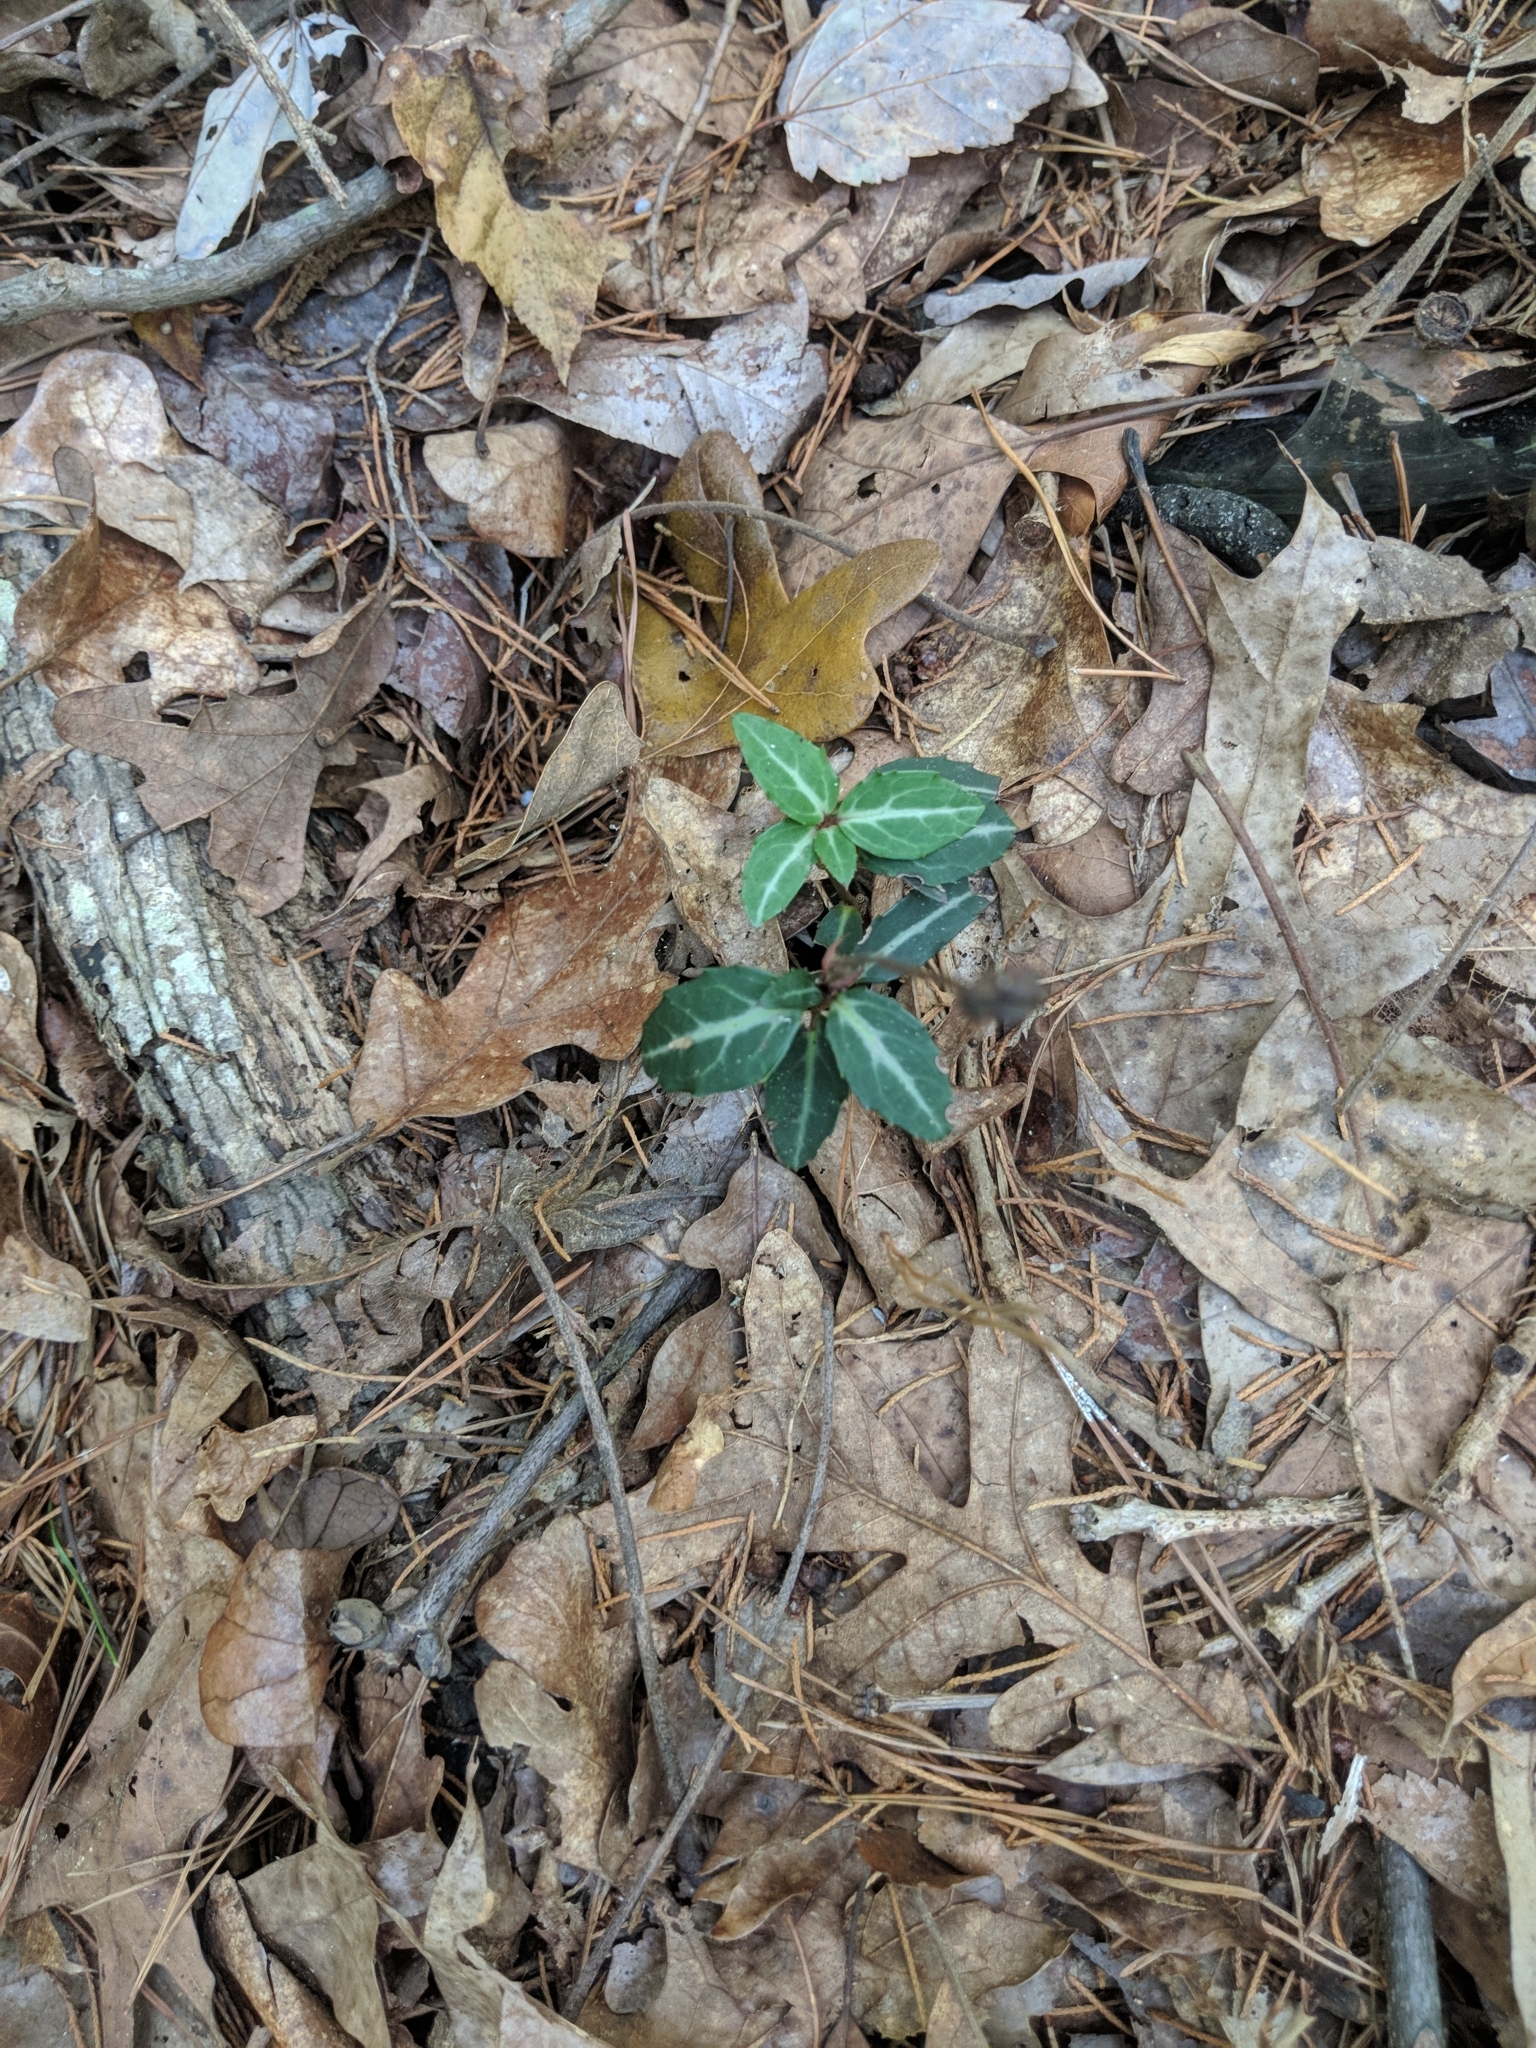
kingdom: Plantae
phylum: Tracheophyta
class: Magnoliopsida
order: Ericales
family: Ericaceae
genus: Chimaphila
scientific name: Chimaphila maculata
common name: Spotted pipsissewa
